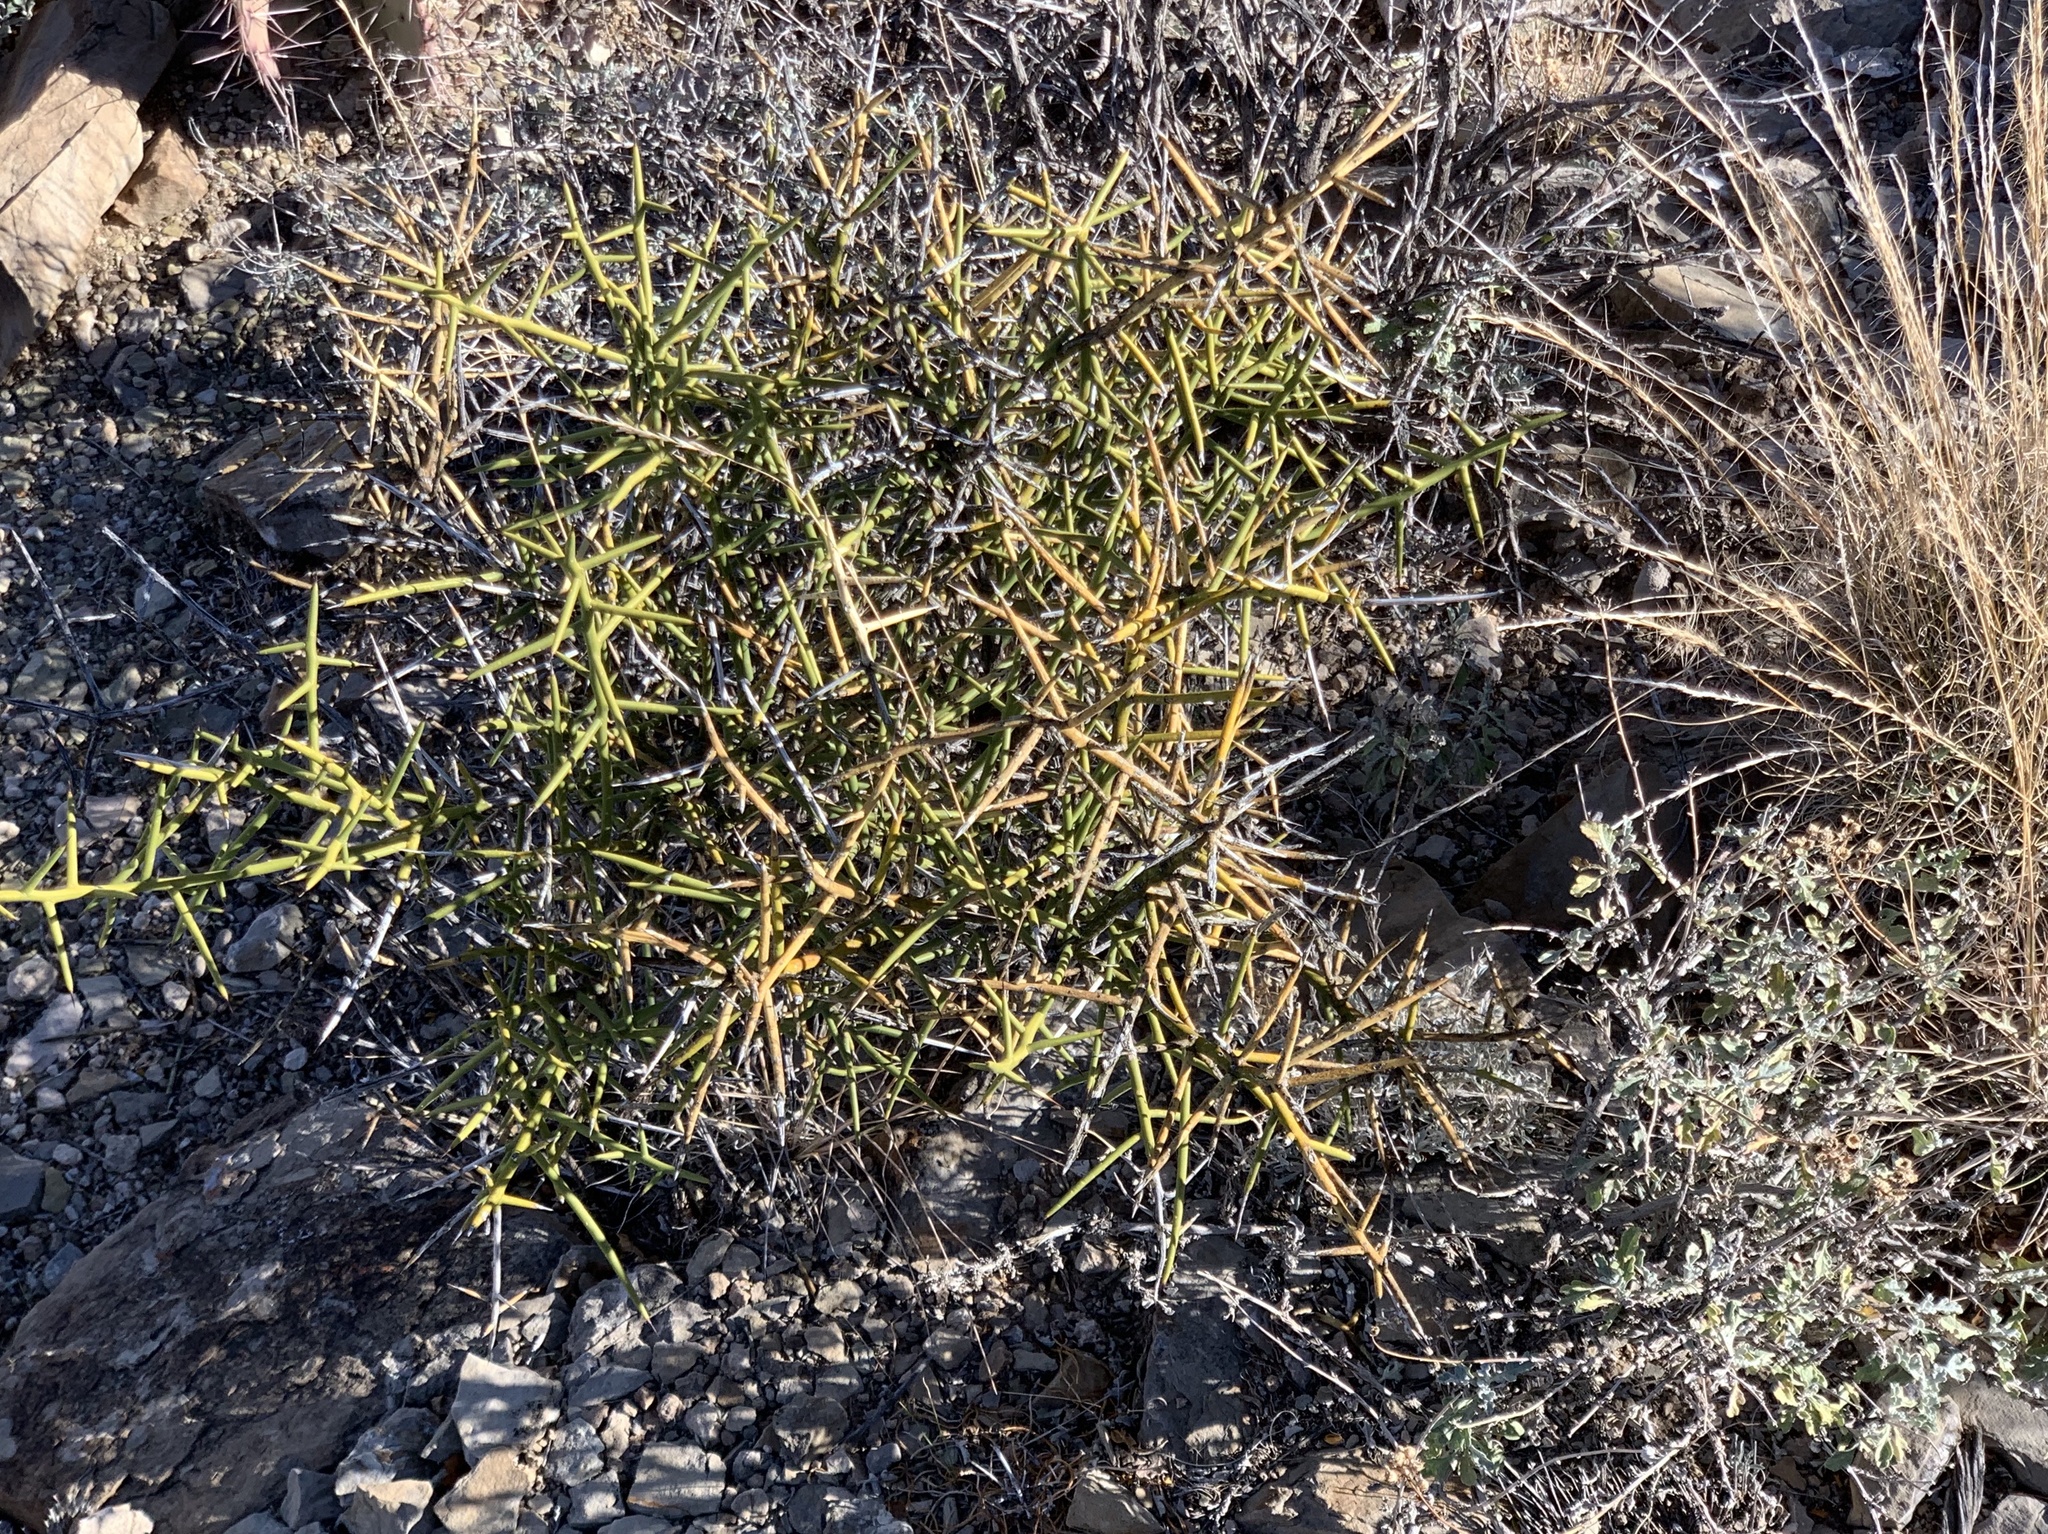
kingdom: Plantae
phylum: Tracheophyta
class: Magnoliopsida
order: Brassicales
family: Koeberliniaceae
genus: Koeberlinia
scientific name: Koeberlinia spinosa
